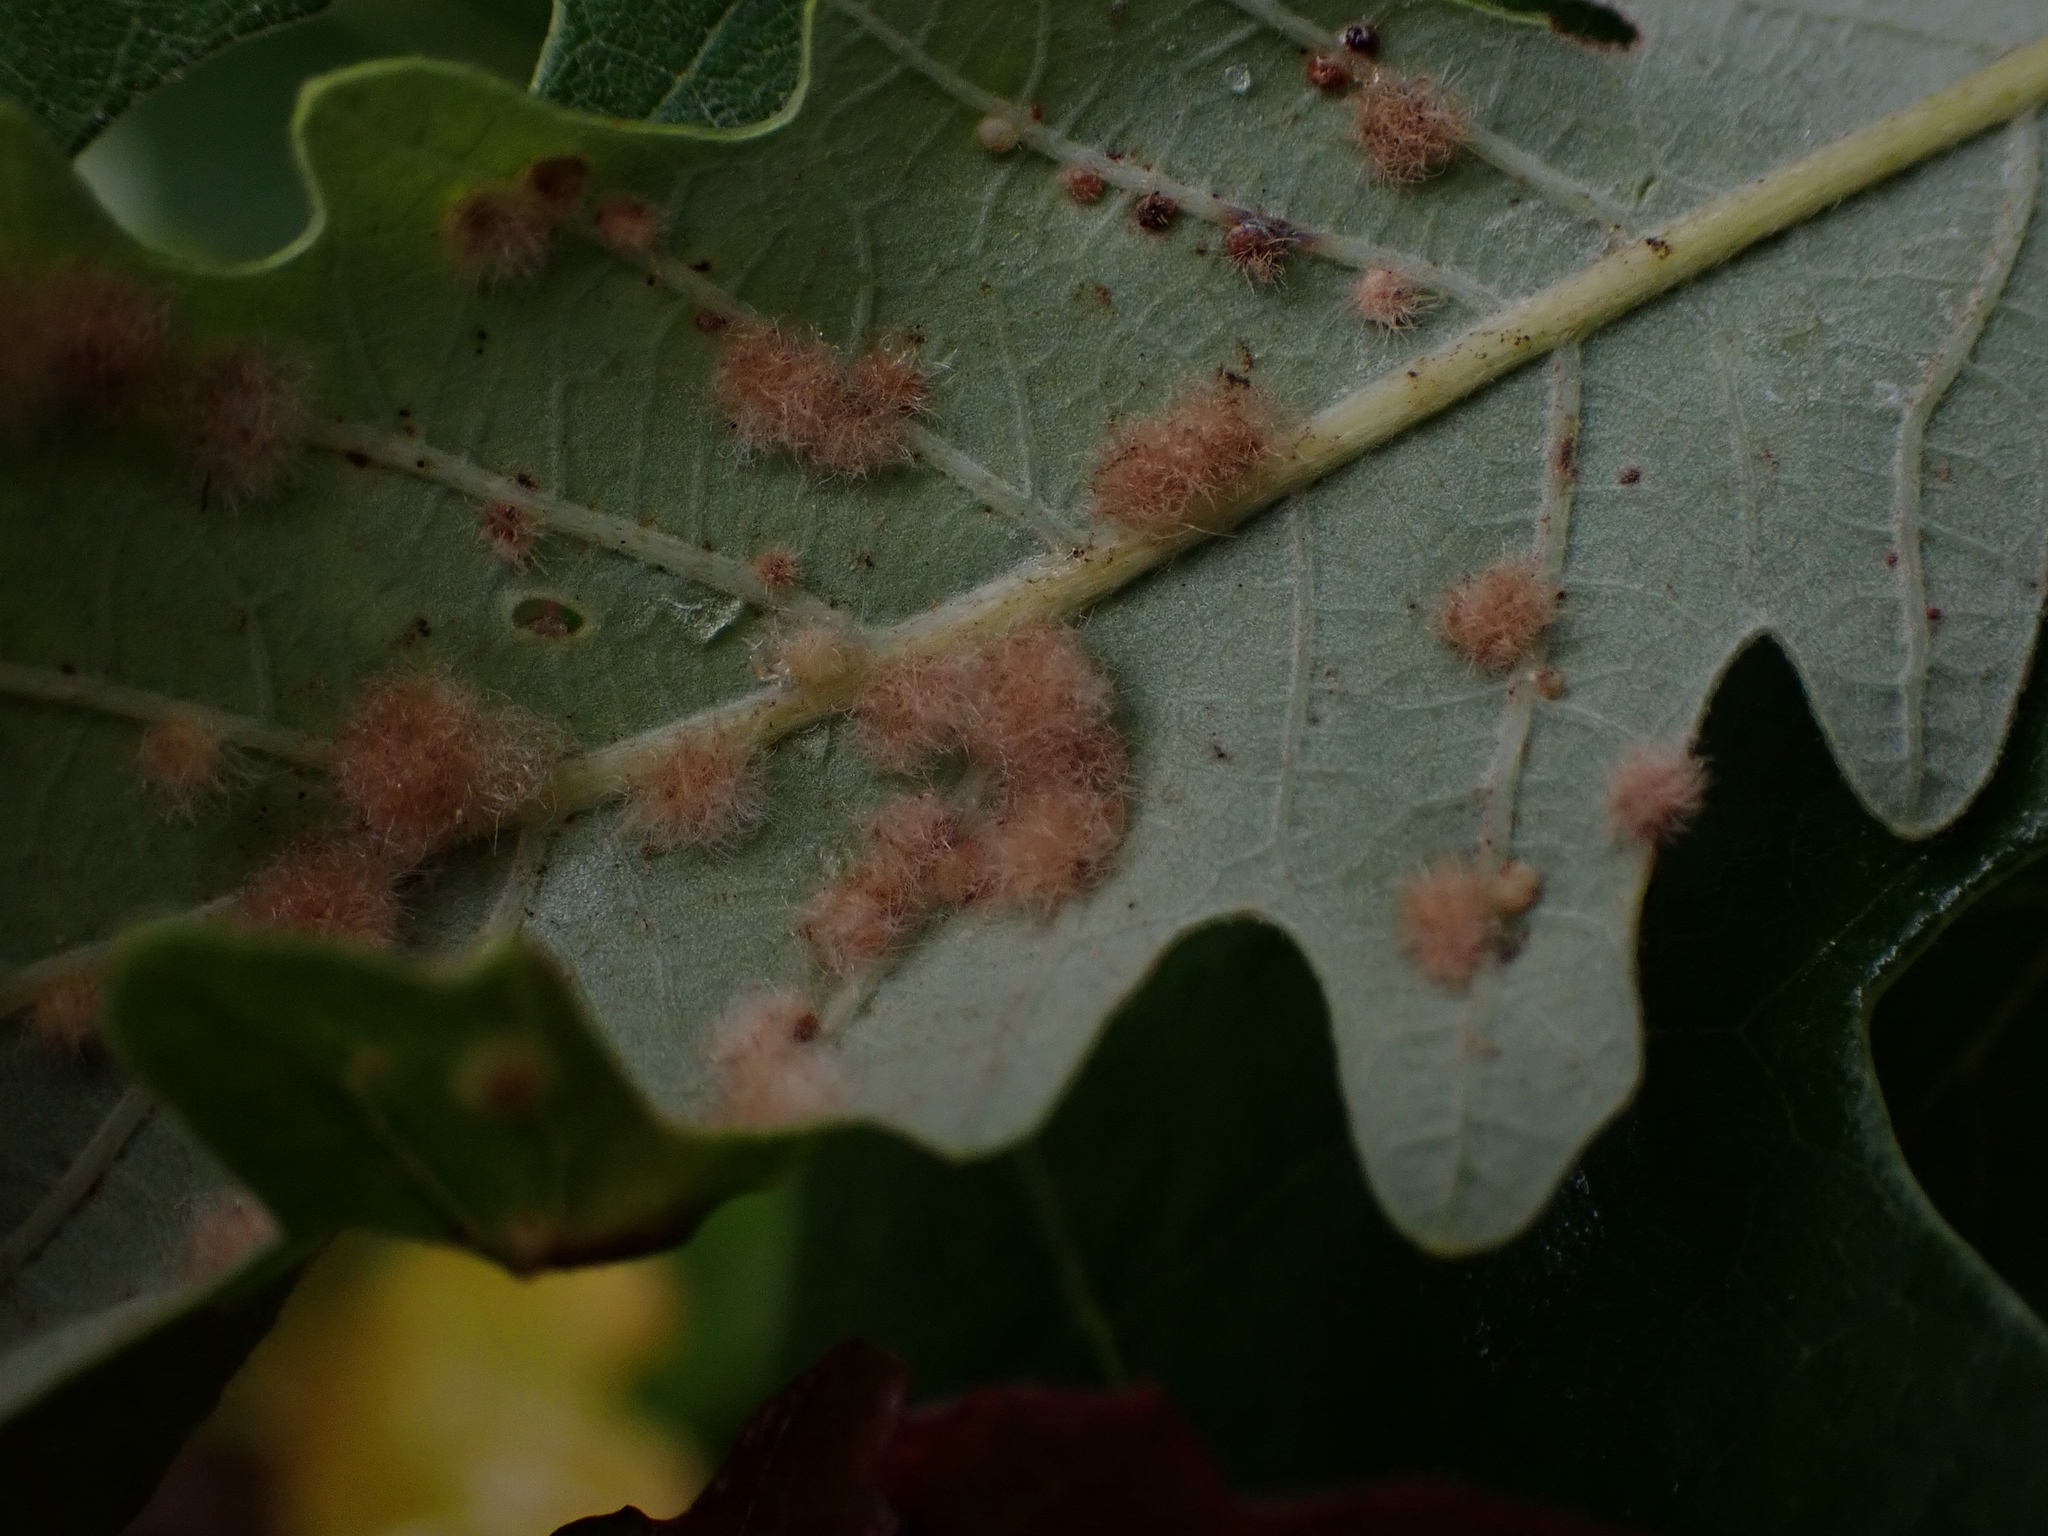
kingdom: Animalia
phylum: Arthropoda
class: Insecta
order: Hymenoptera
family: Cynipidae
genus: Neuroterus
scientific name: Neuroterus floccosus
